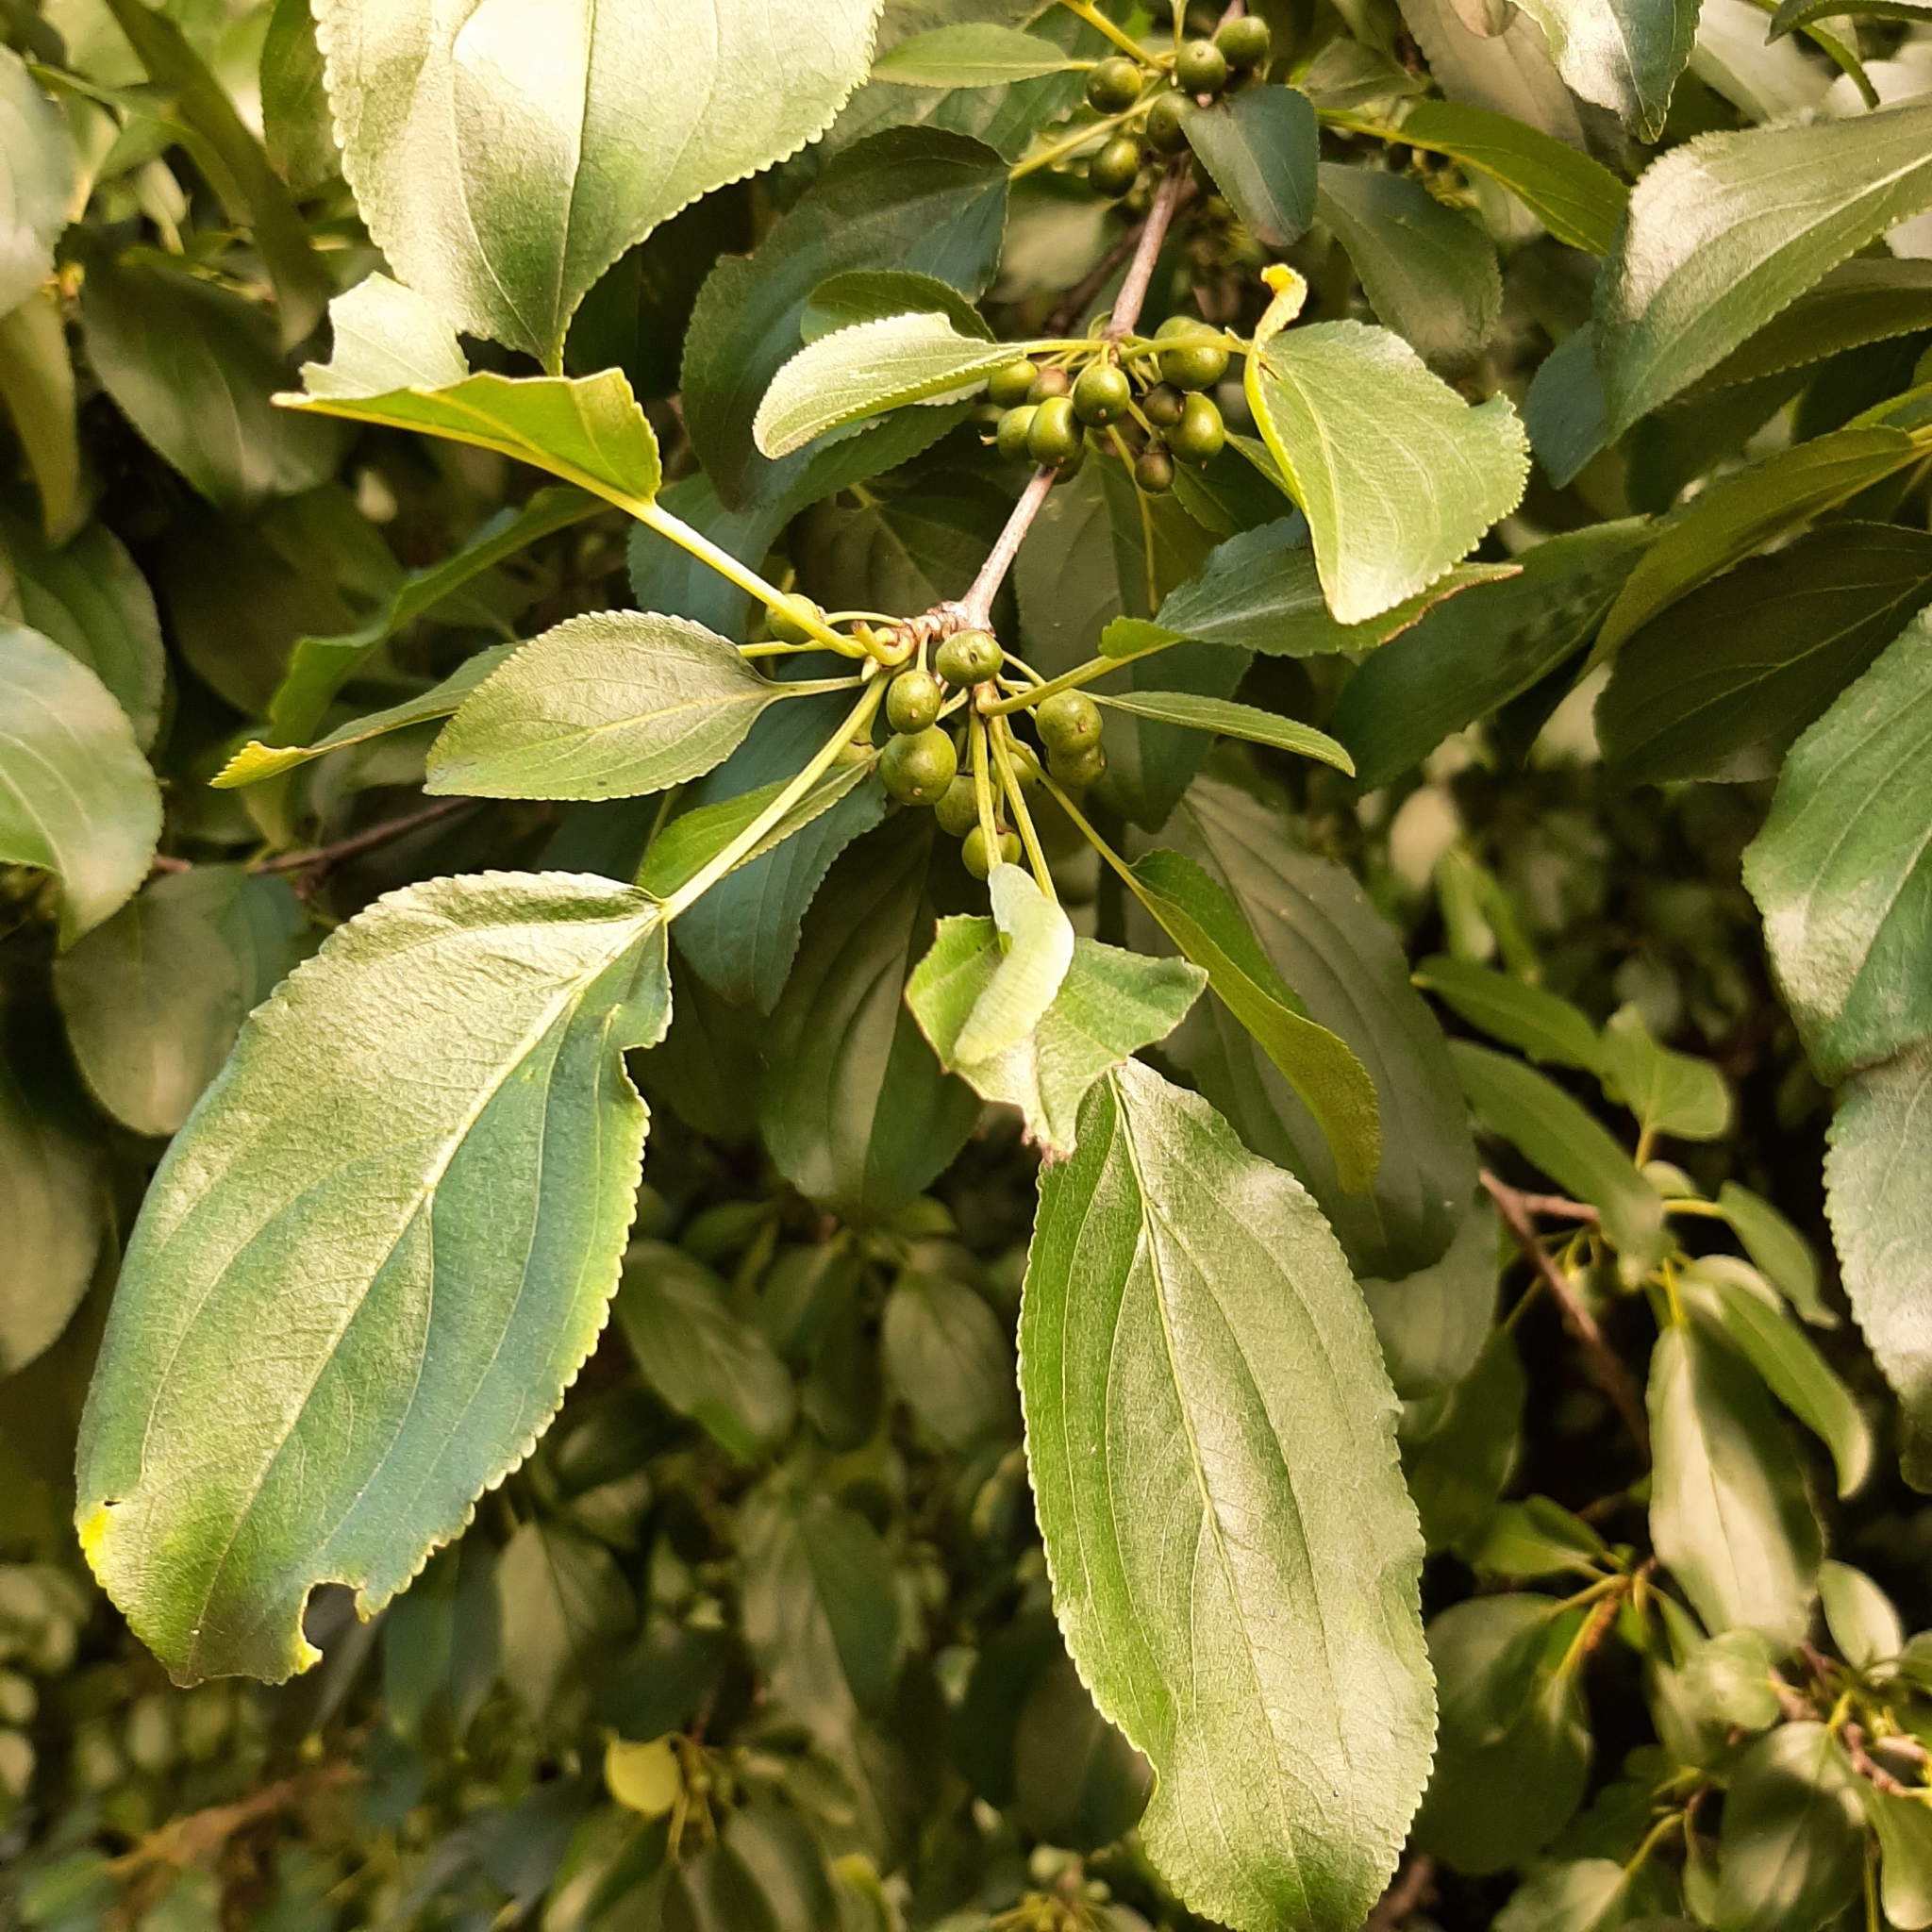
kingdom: Plantae
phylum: Tracheophyta
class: Magnoliopsida
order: Rosales
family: Rhamnaceae
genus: Rhamnus
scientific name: Rhamnus cathartica
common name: Common buckthorn
